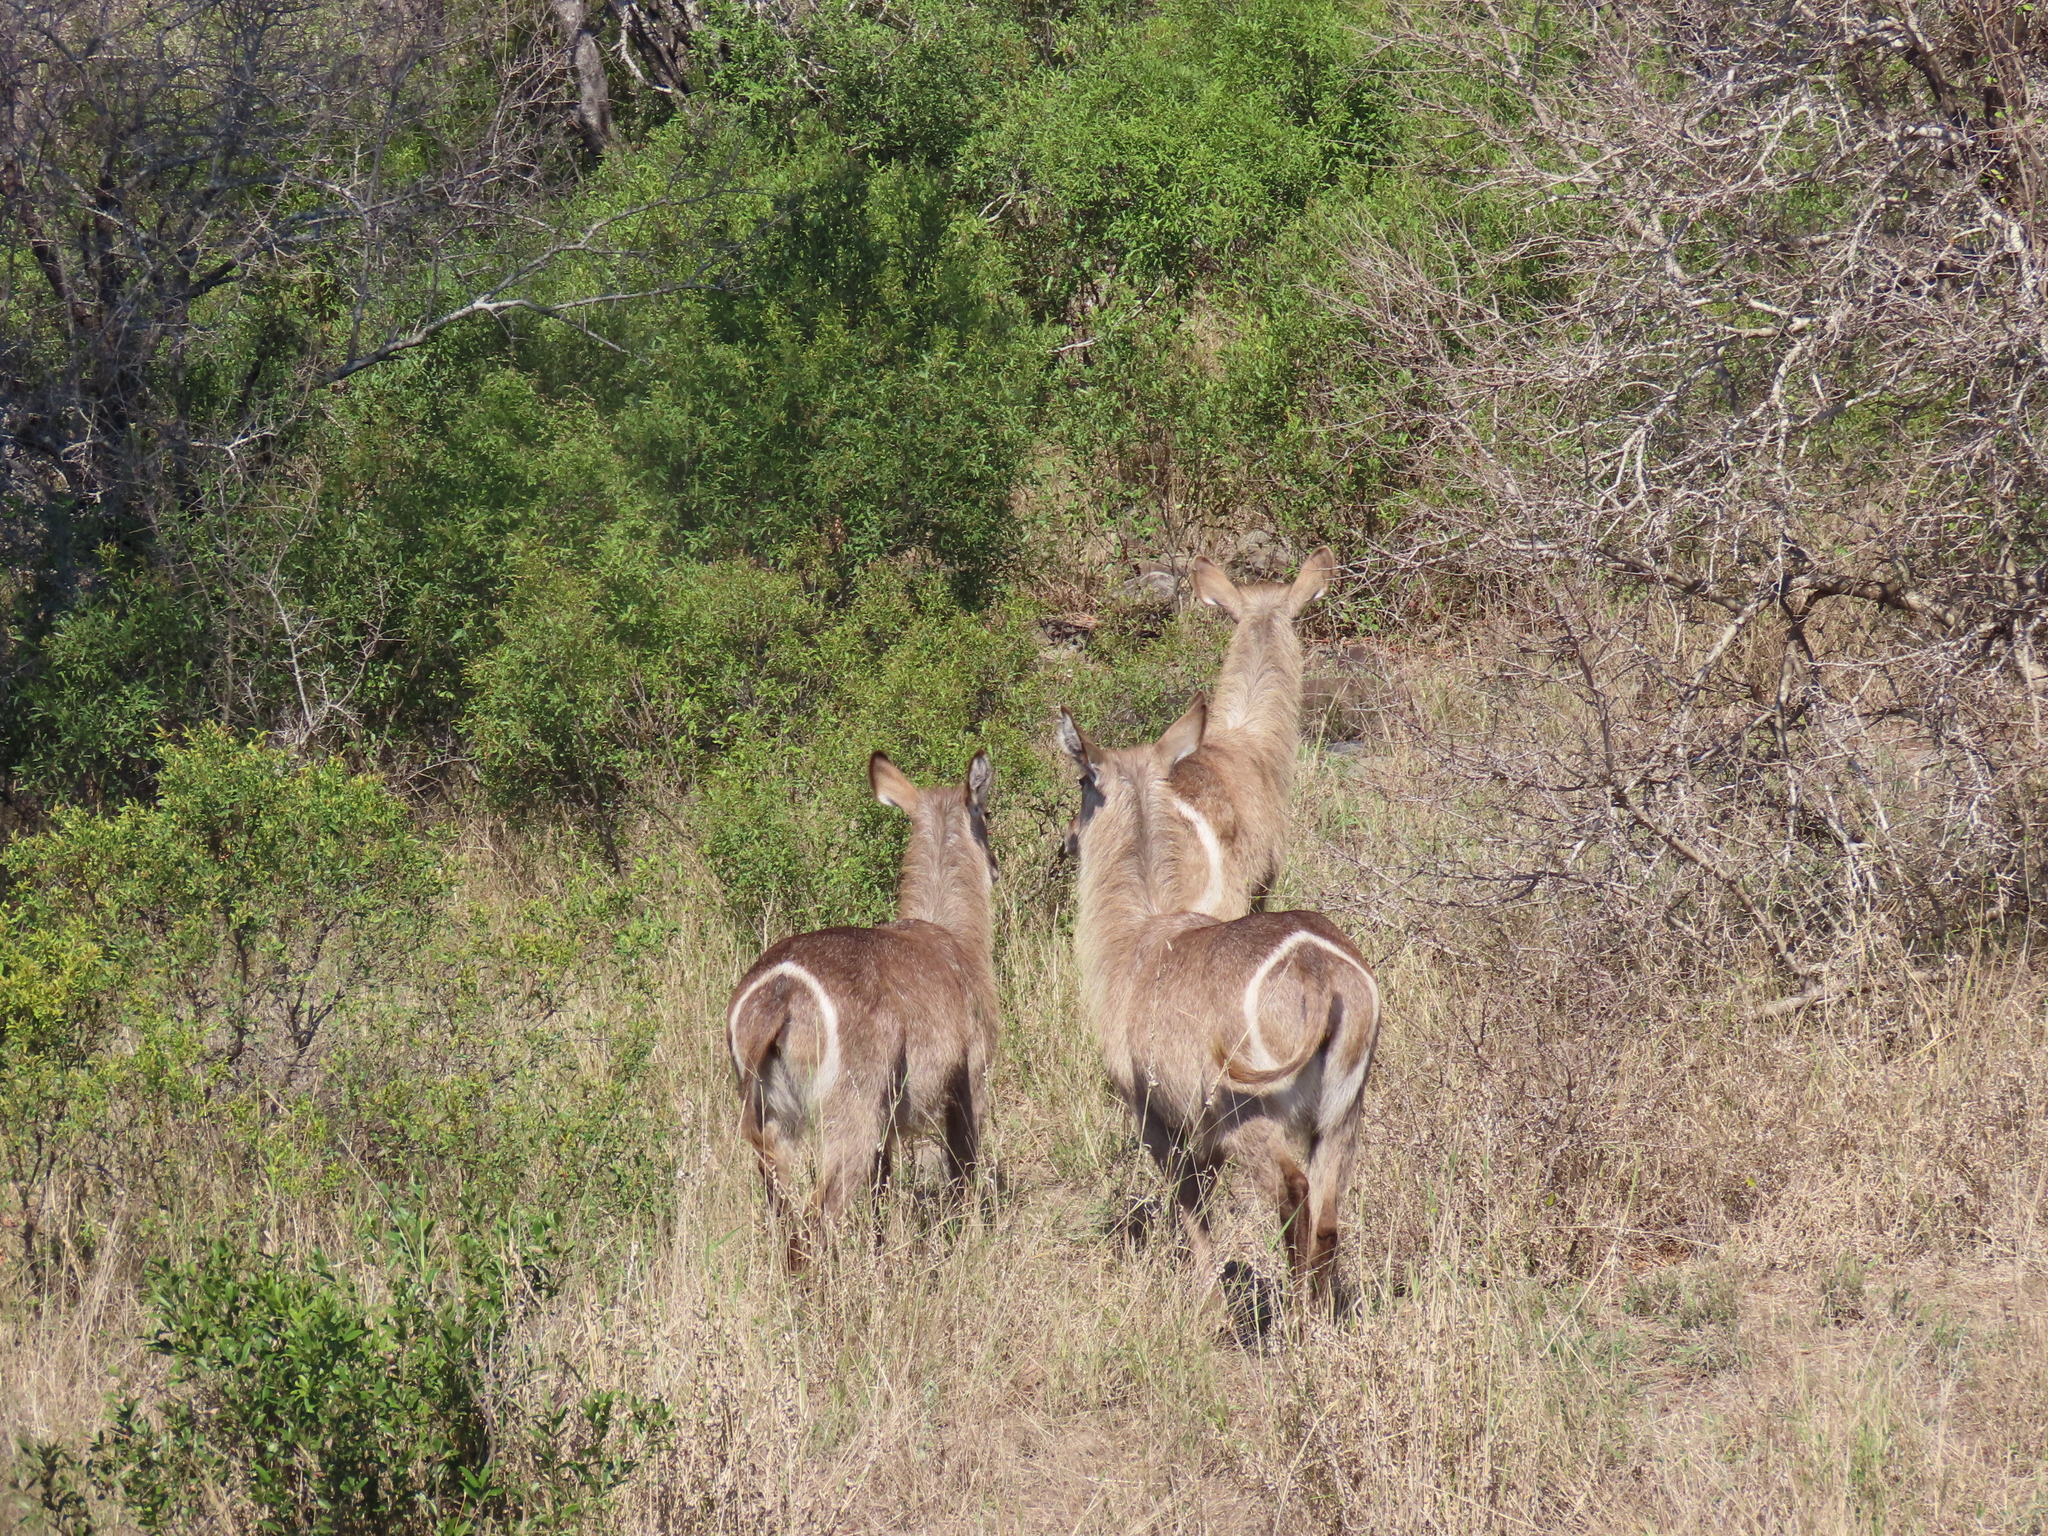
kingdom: Animalia
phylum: Chordata
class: Mammalia
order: Artiodactyla
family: Bovidae
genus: Kobus
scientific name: Kobus ellipsiprymnus
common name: Waterbuck
